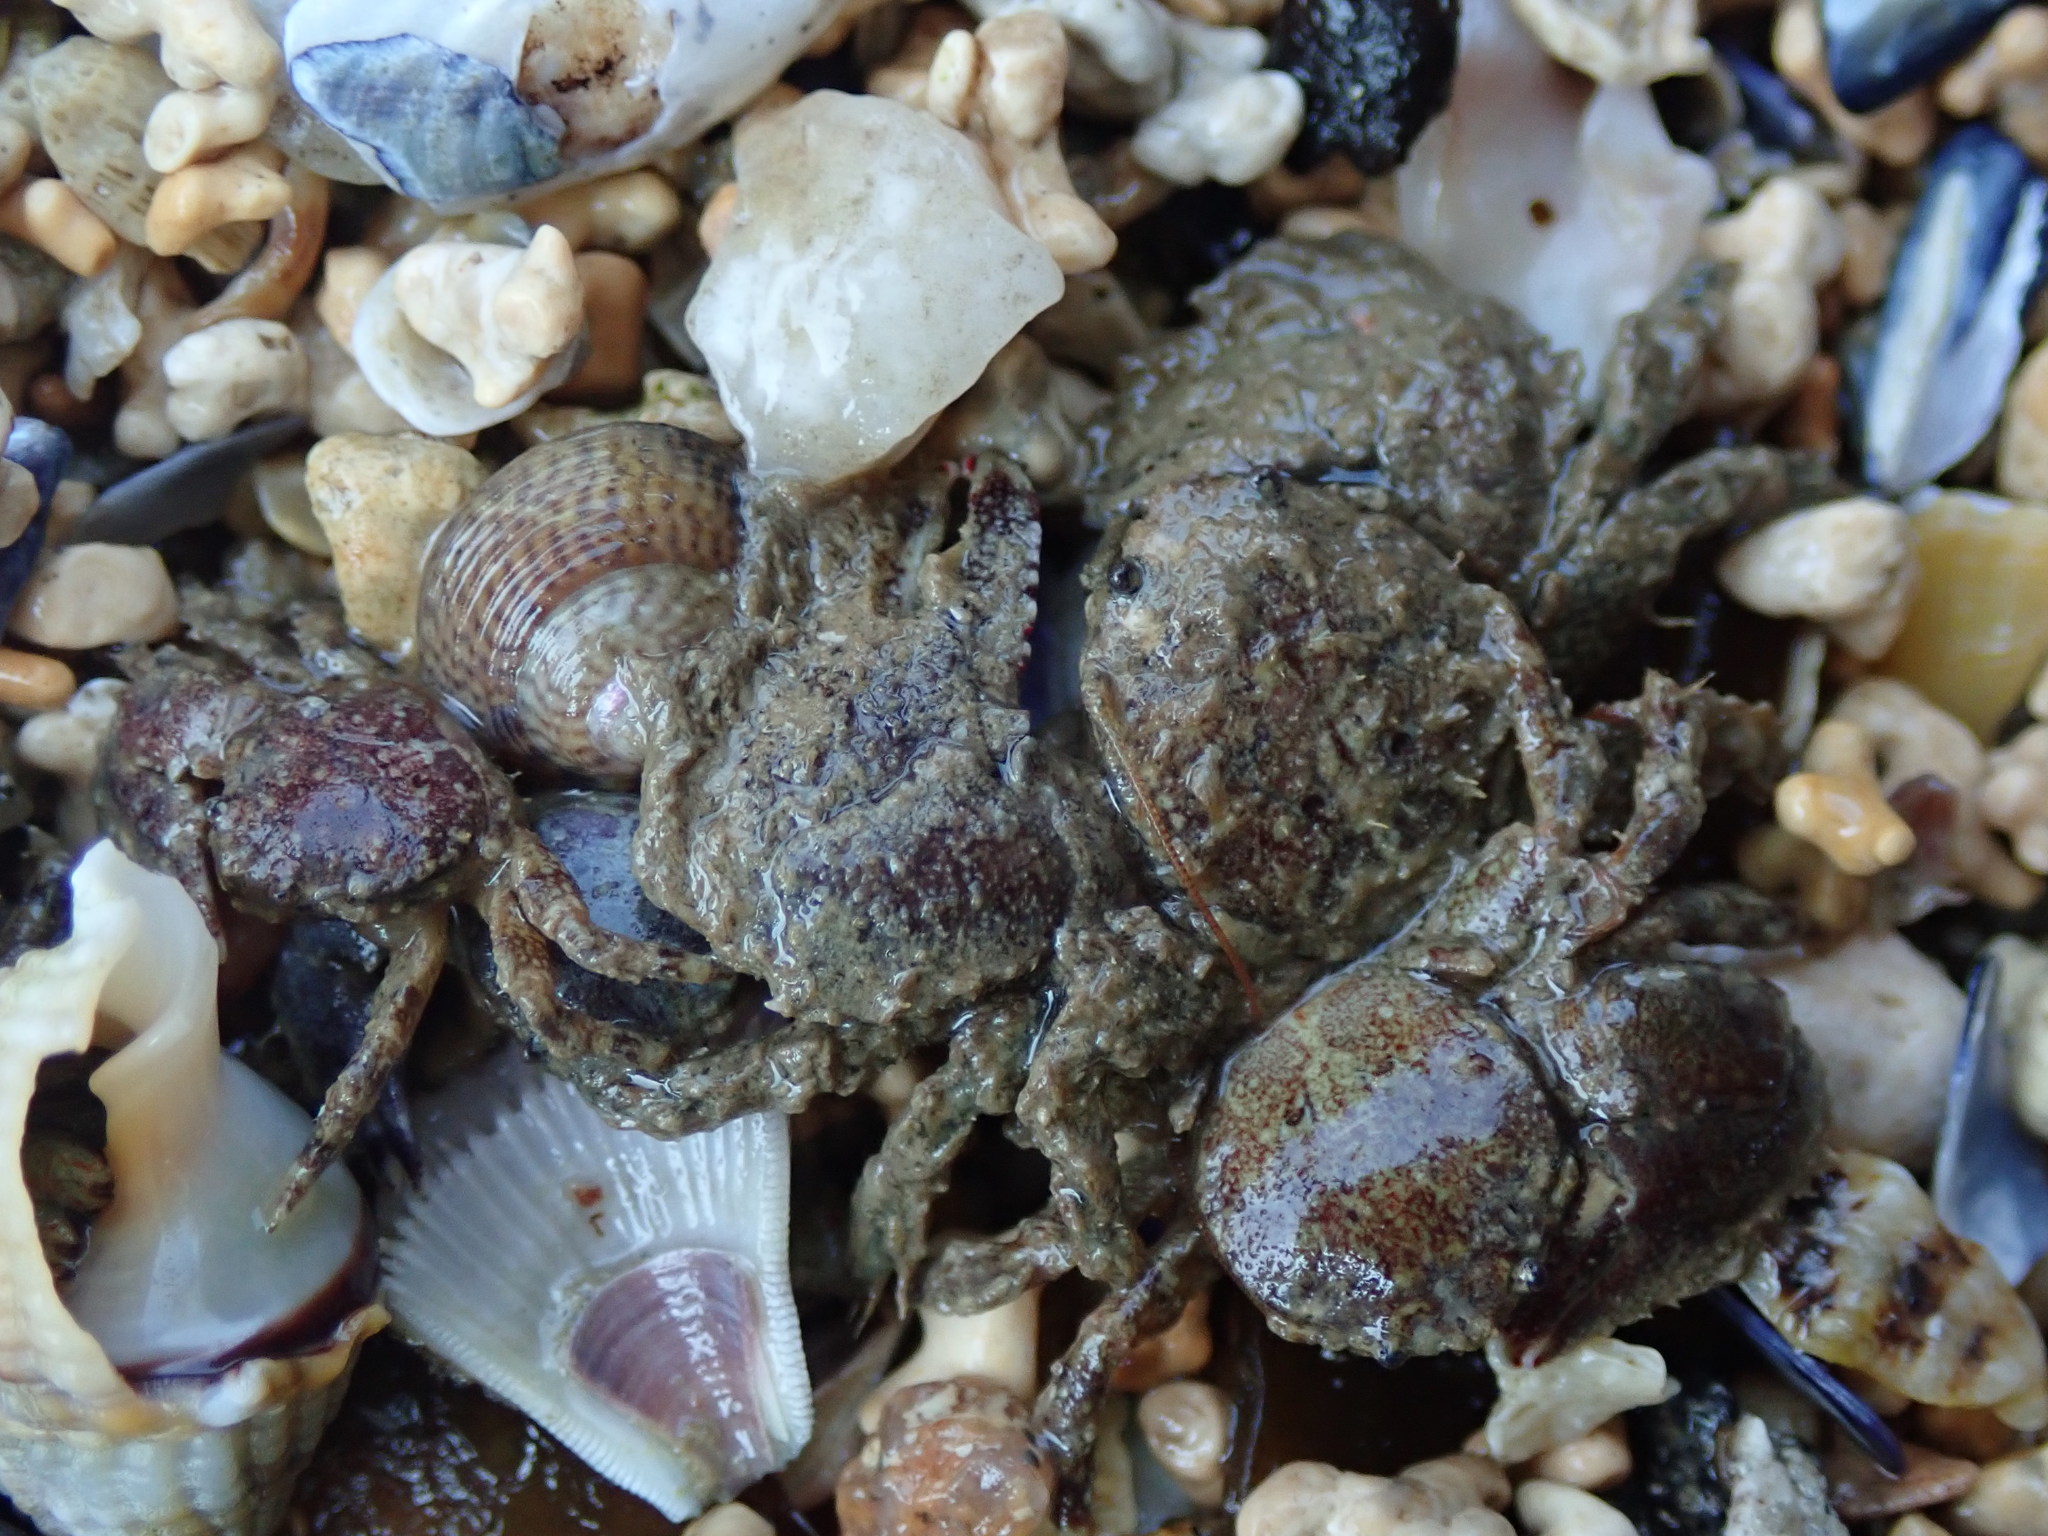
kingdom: Animalia
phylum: Arthropoda
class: Malacostraca
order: Decapoda
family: Porcellanidae
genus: Porcellana
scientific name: Porcellana platycheles
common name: Porcelain crab
